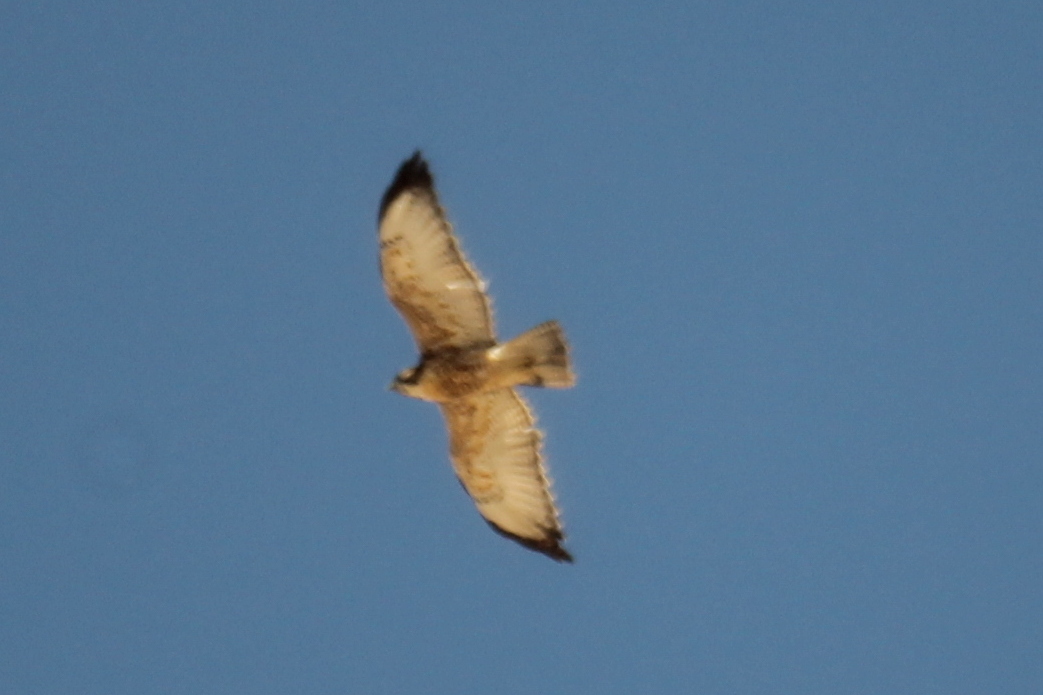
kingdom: Animalia
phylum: Chordata
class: Aves
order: Accipitriformes
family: Accipitridae
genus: Buteo
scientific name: Buteo polyosoma
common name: Variable hawk
